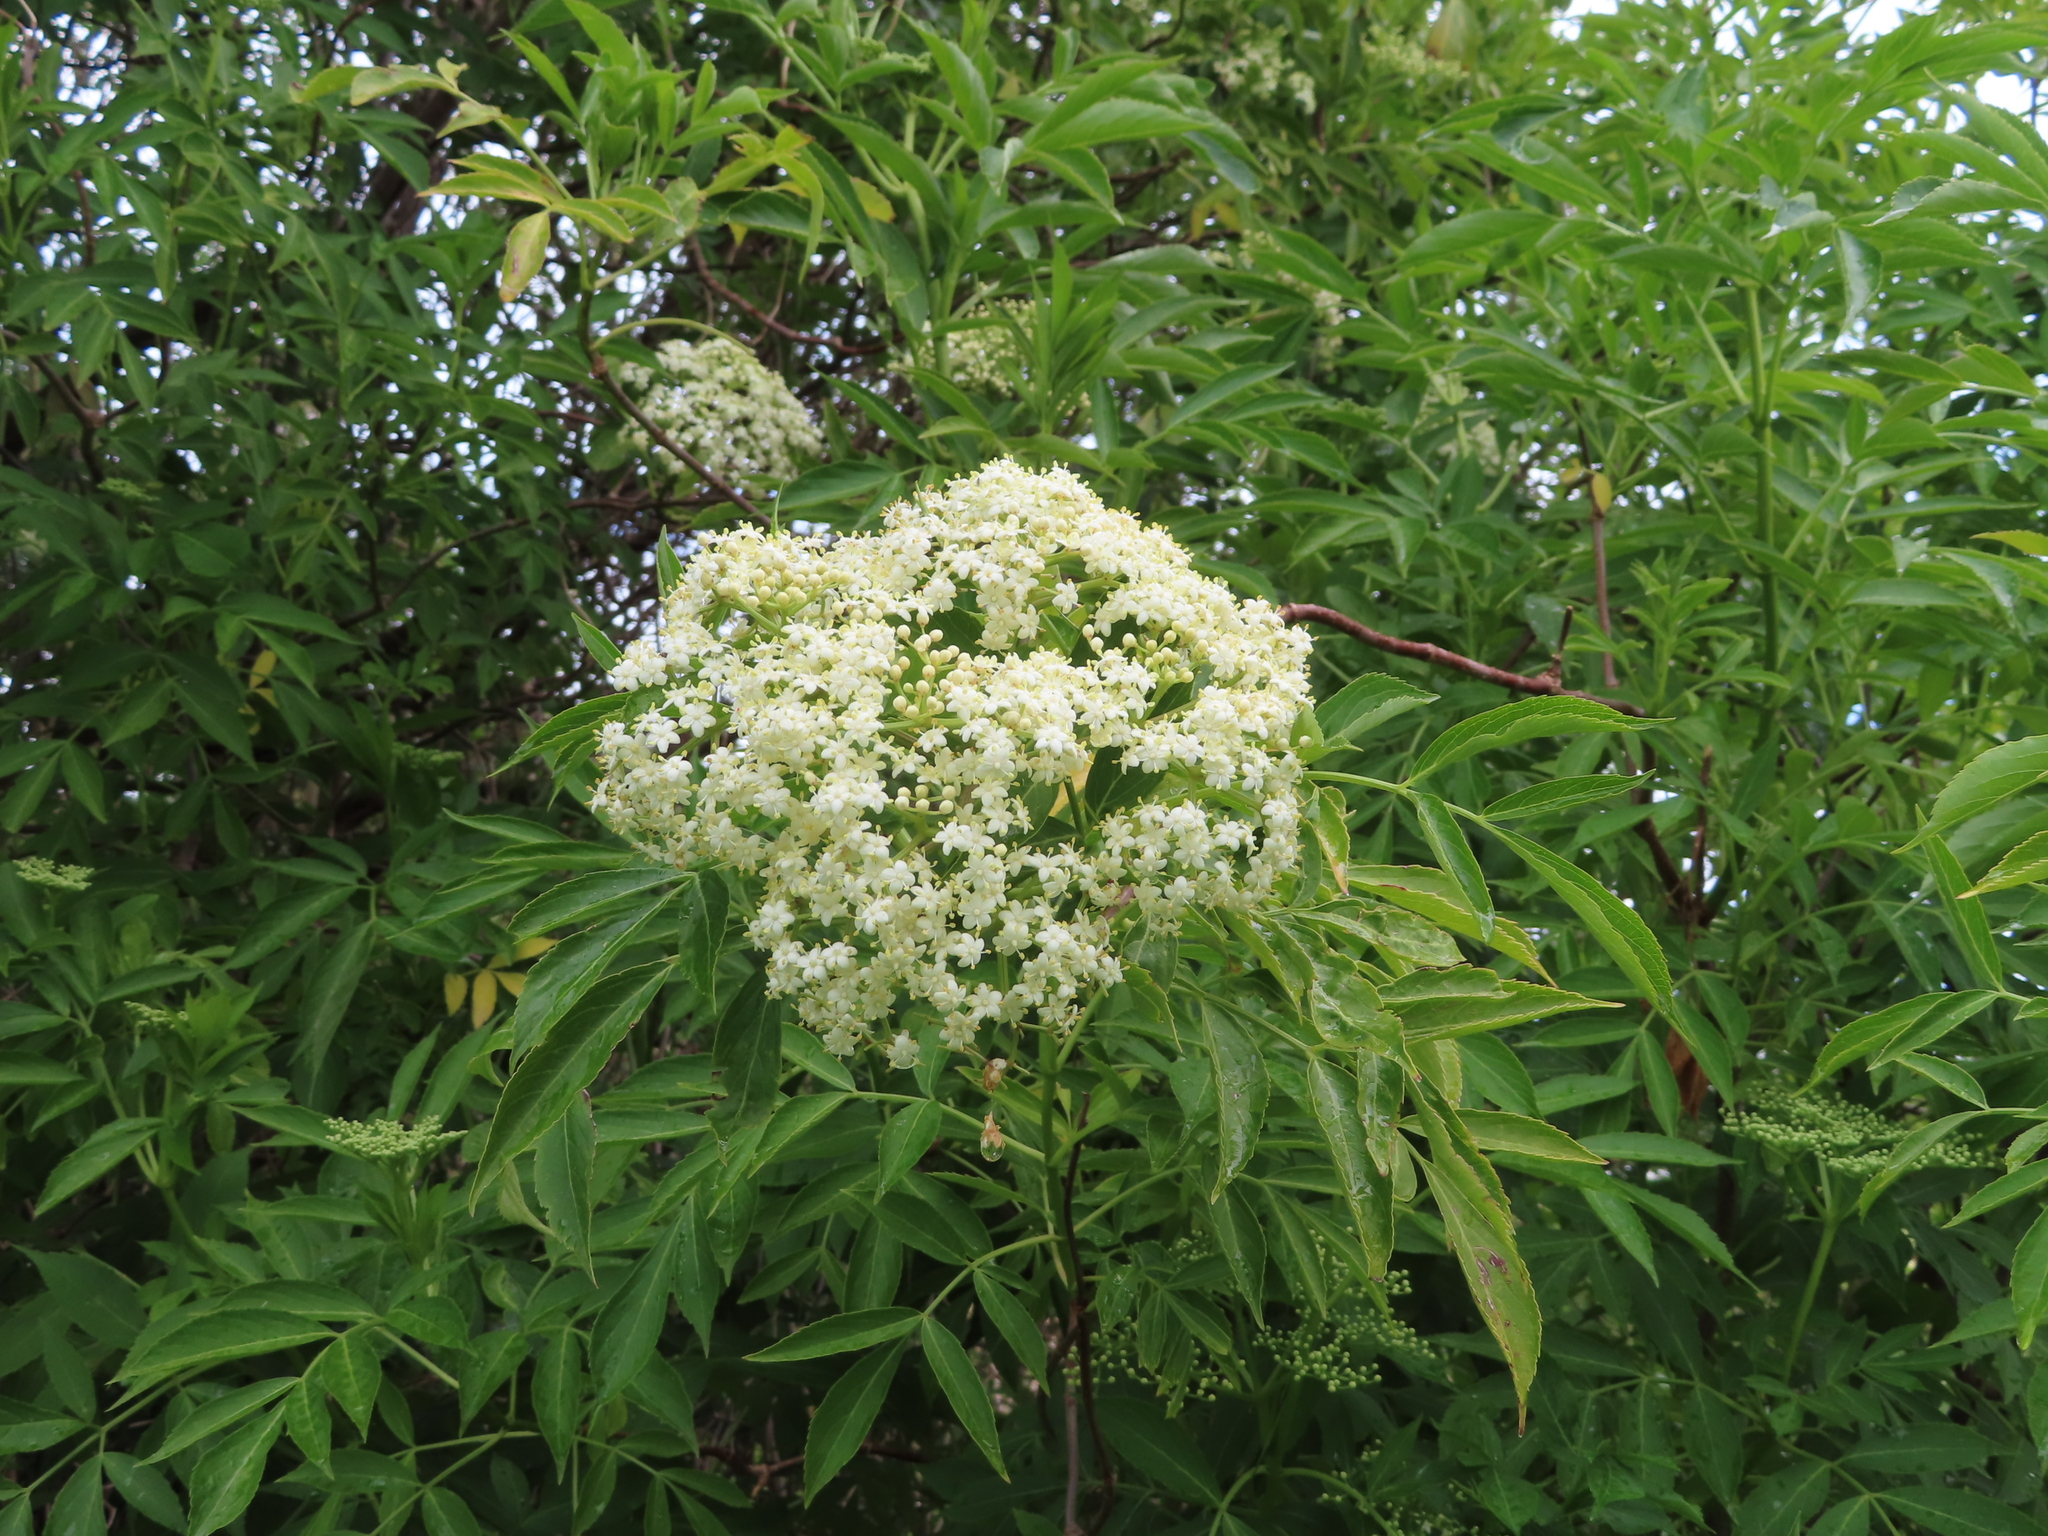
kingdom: Plantae
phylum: Tracheophyta
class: Magnoliopsida
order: Dipsacales
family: Viburnaceae
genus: Sambucus
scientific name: Sambucus nigra
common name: Elder
